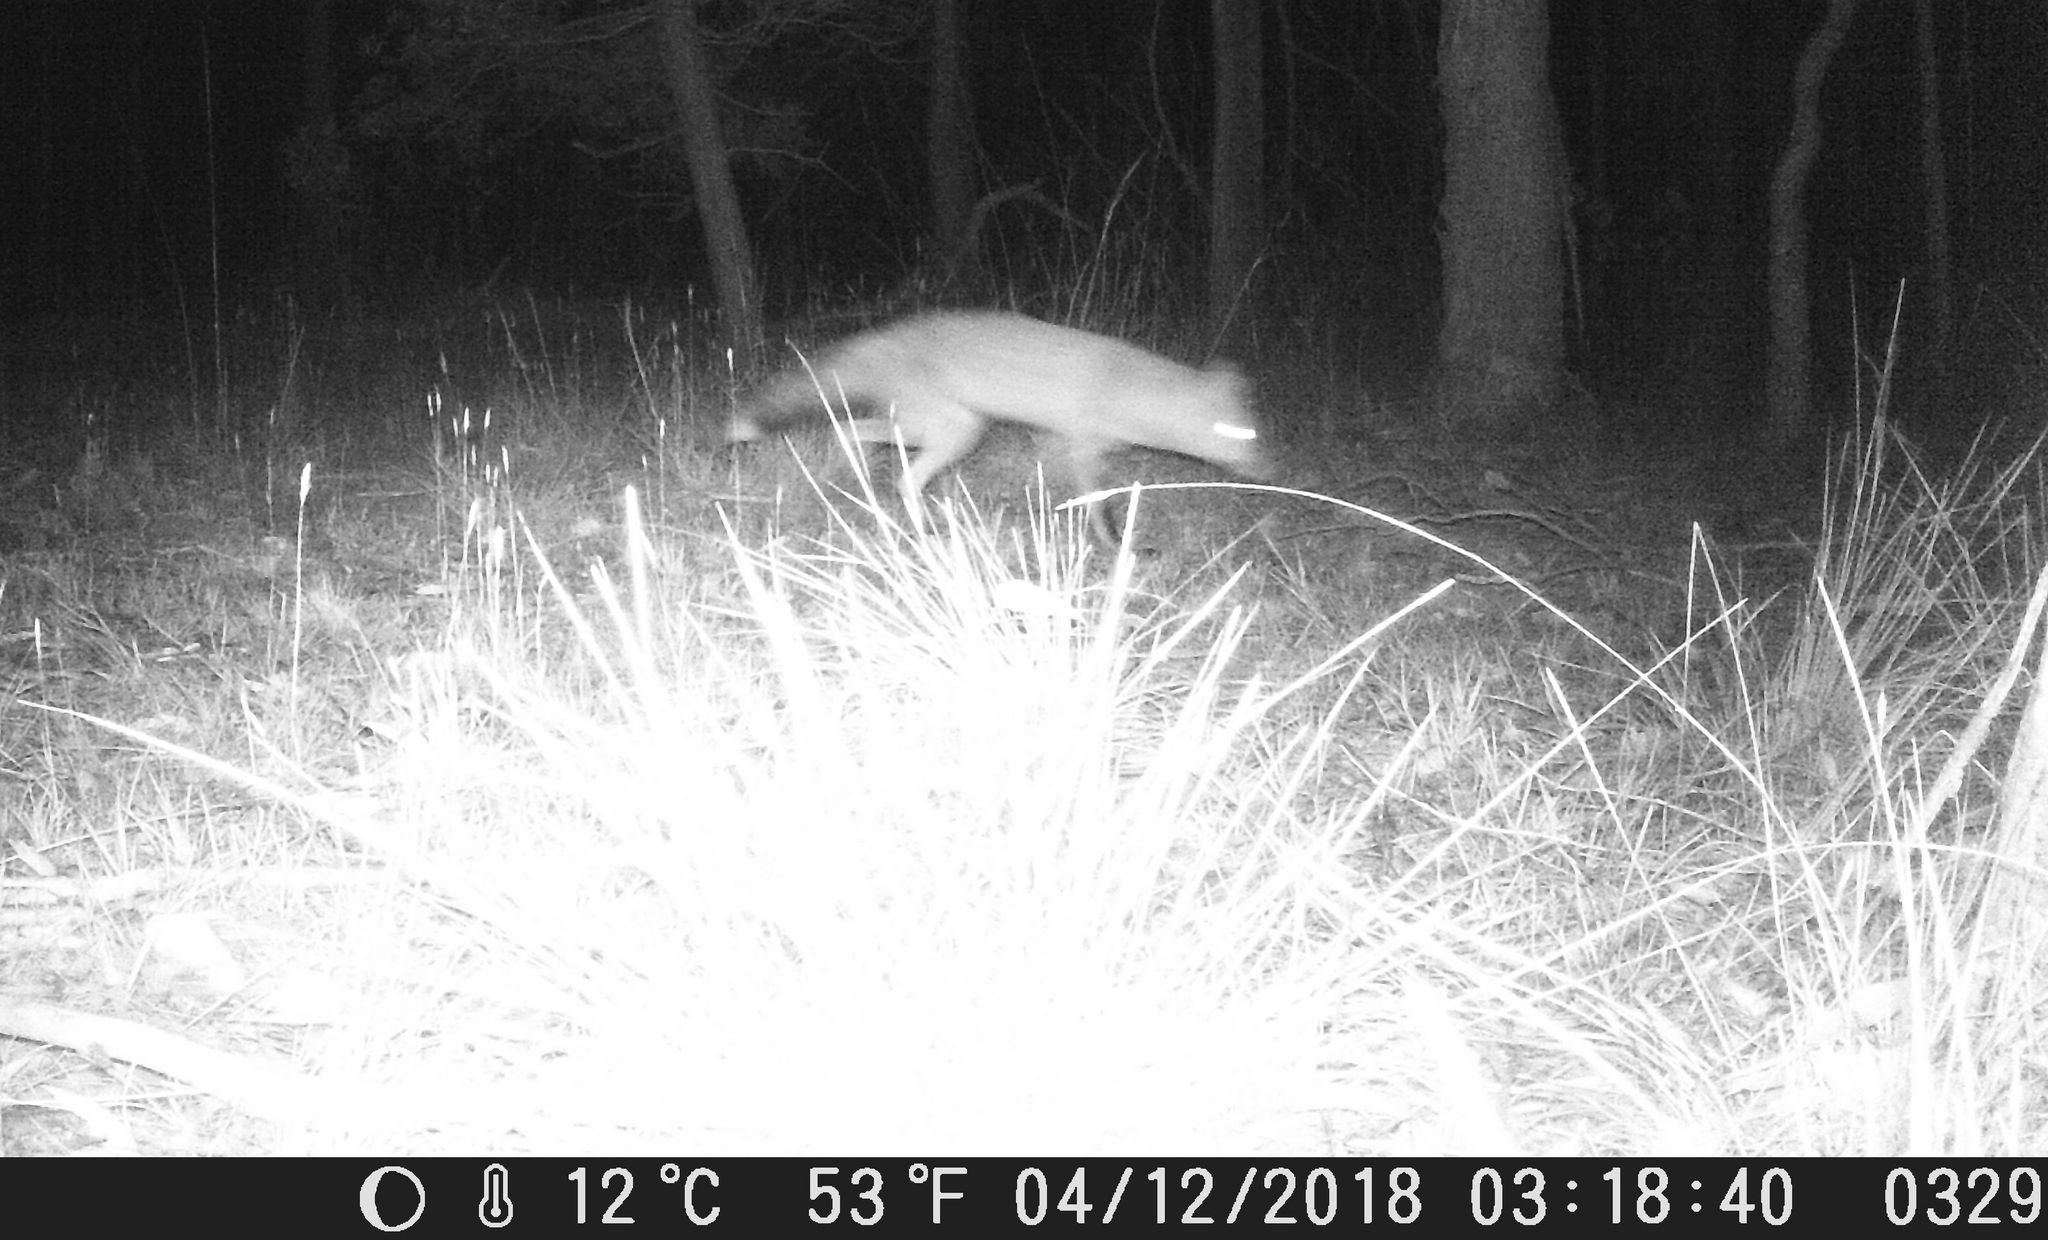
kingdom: Animalia
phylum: Chordata
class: Mammalia
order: Carnivora
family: Canidae
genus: Vulpes
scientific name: Vulpes vulpes
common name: Red fox
